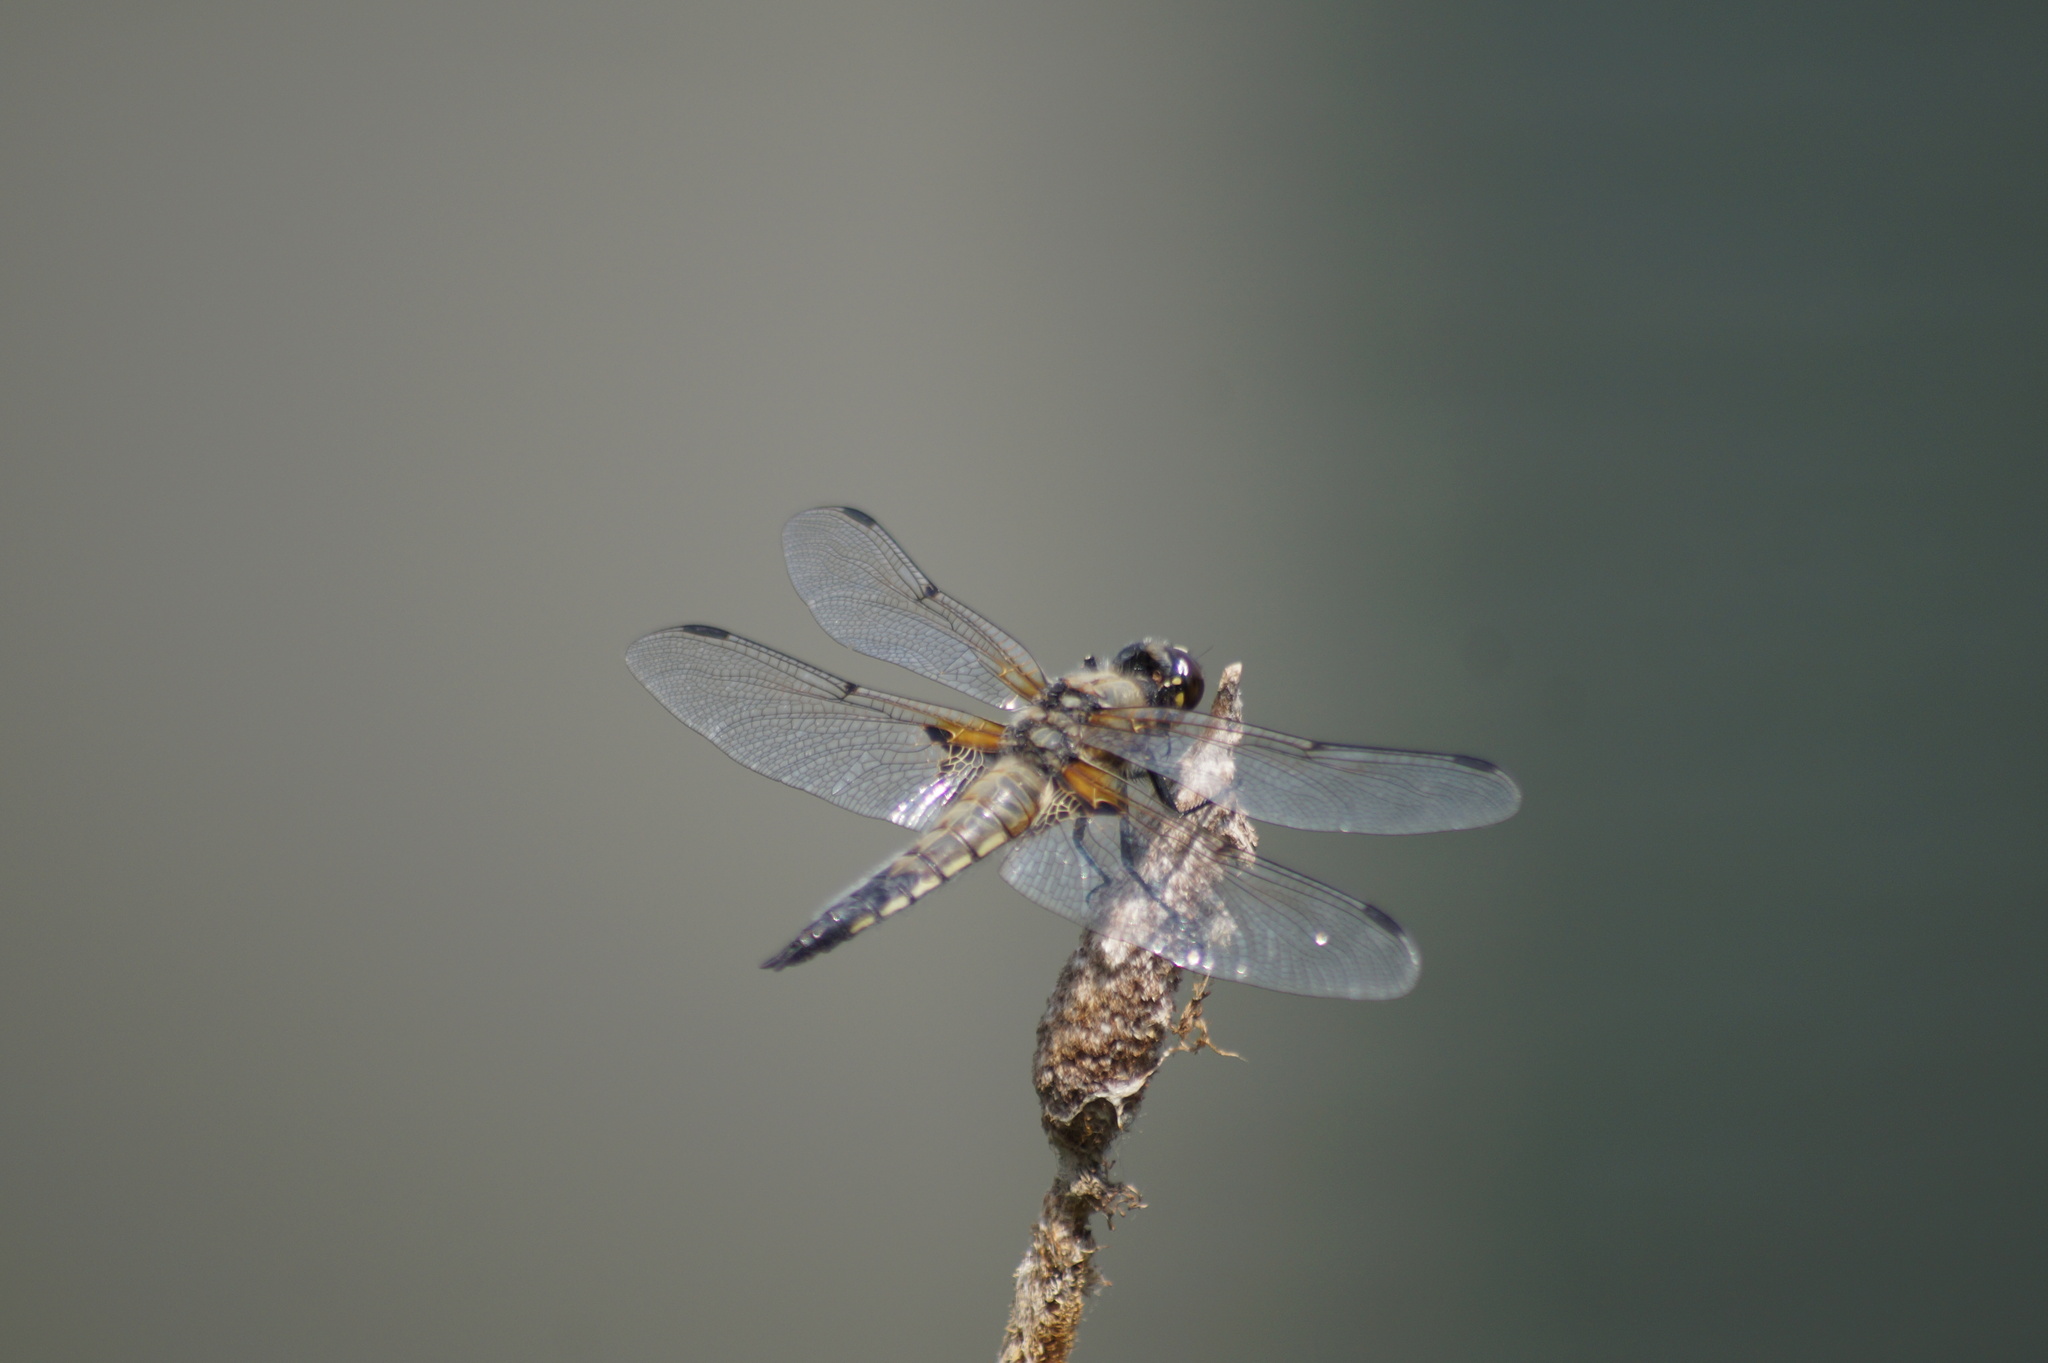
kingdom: Animalia
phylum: Arthropoda
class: Insecta
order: Odonata
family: Libellulidae
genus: Libellula
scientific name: Libellula quadrimaculata
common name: Four-spotted chaser
